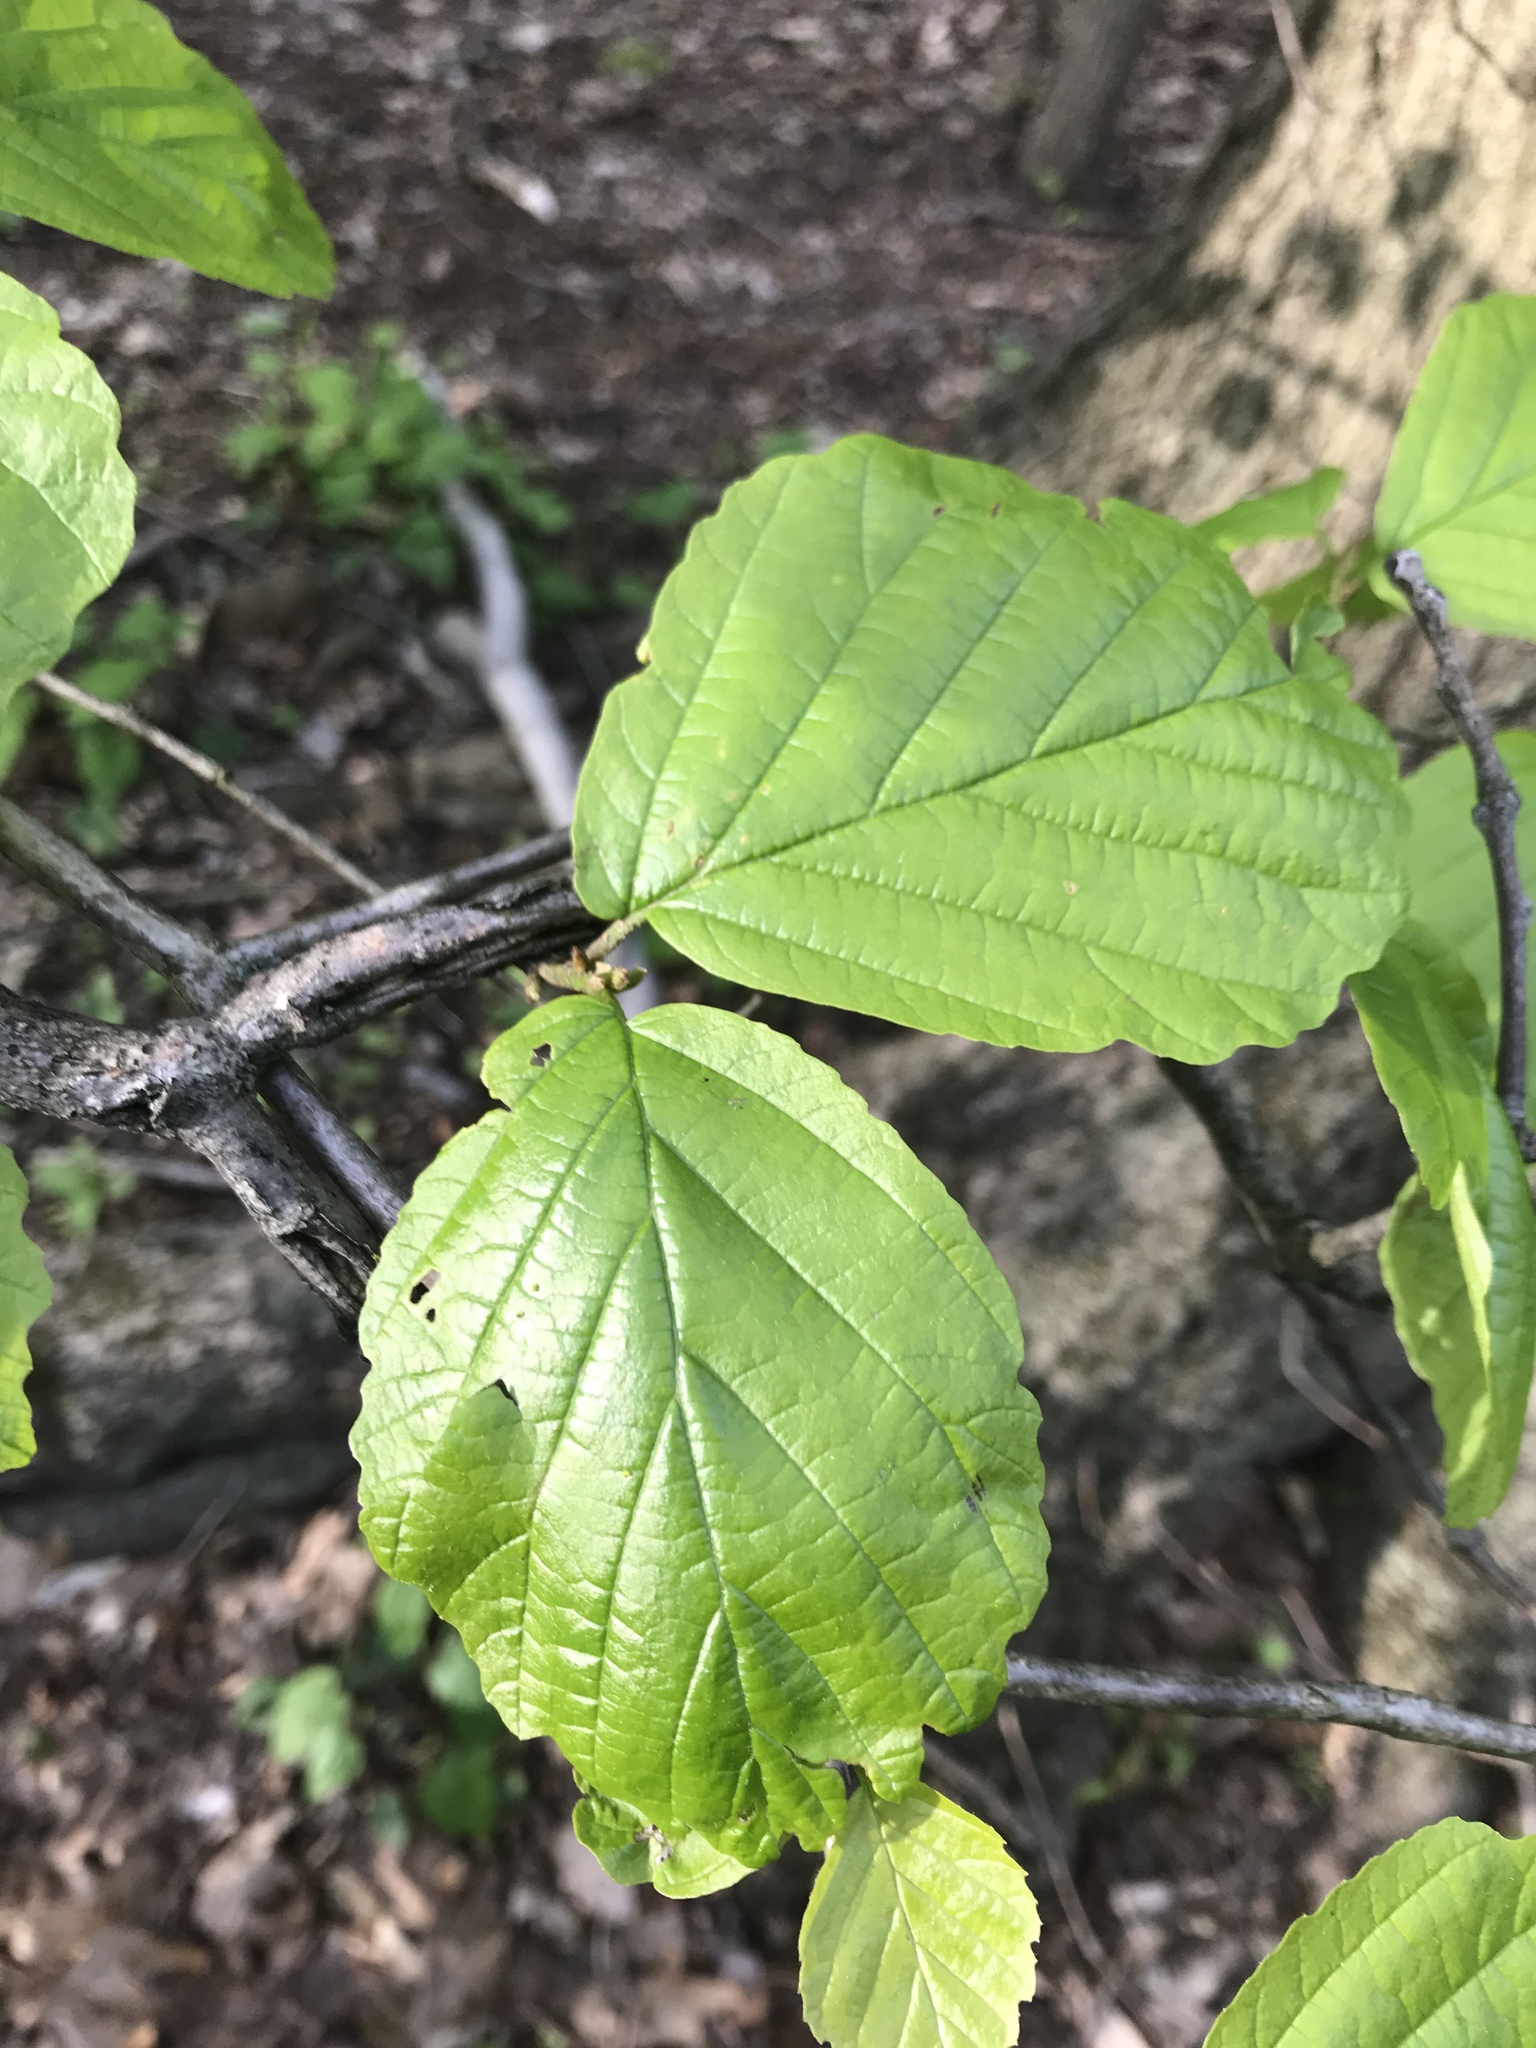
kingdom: Plantae
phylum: Tracheophyta
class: Magnoliopsida
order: Saxifragales
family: Hamamelidaceae
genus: Hamamelis
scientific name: Hamamelis virginiana
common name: Witch-hazel
